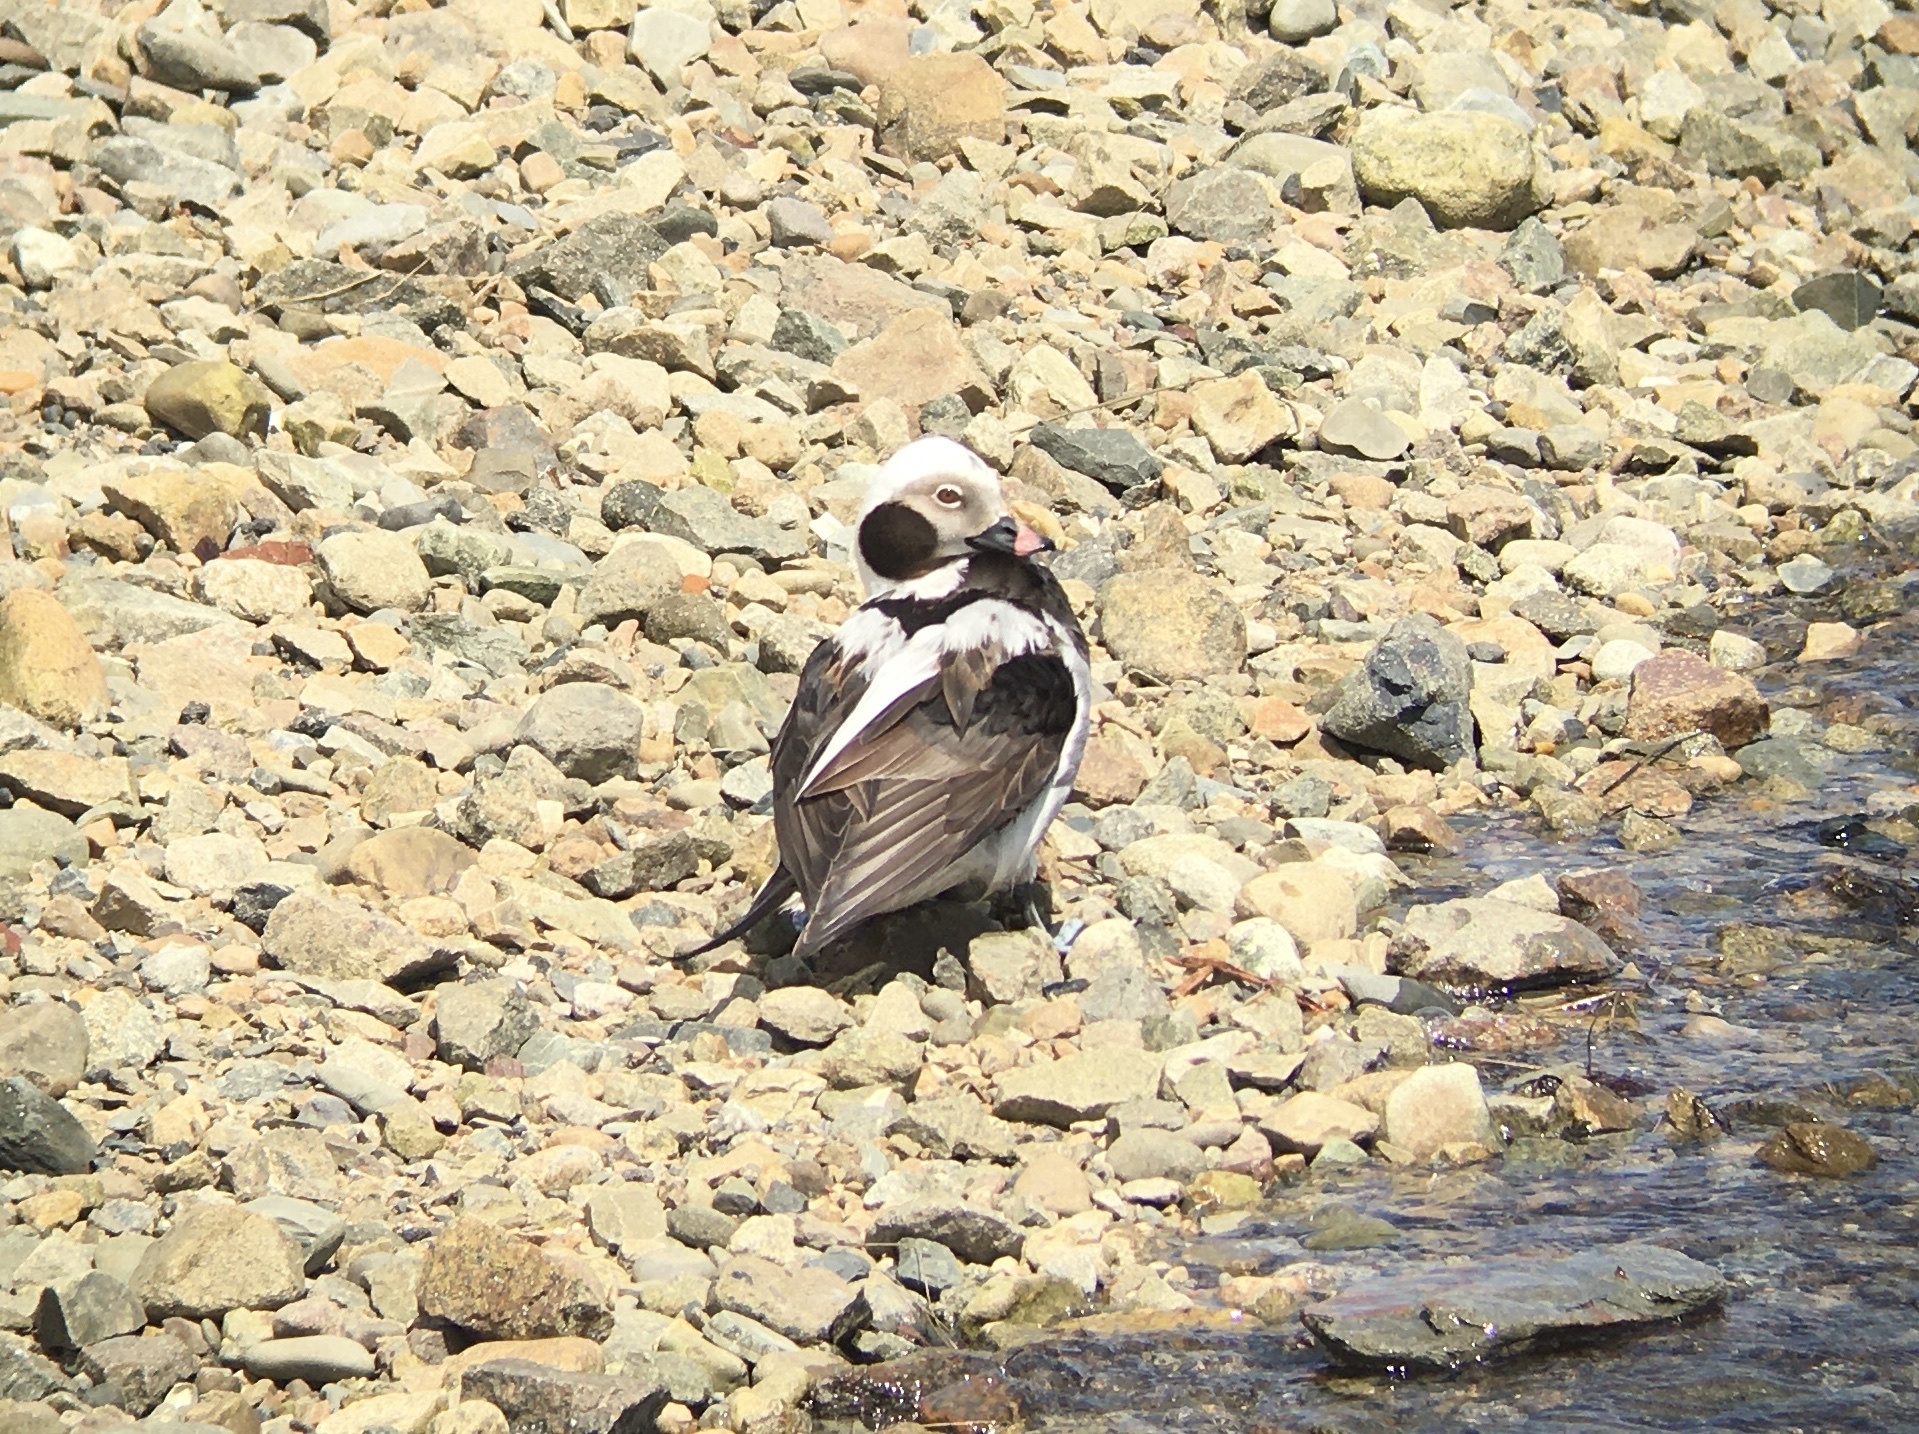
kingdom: Animalia
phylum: Chordata
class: Aves
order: Anseriformes
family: Anatidae
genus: Clangula
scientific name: Clangula hyemalis
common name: Long-tailed duck
